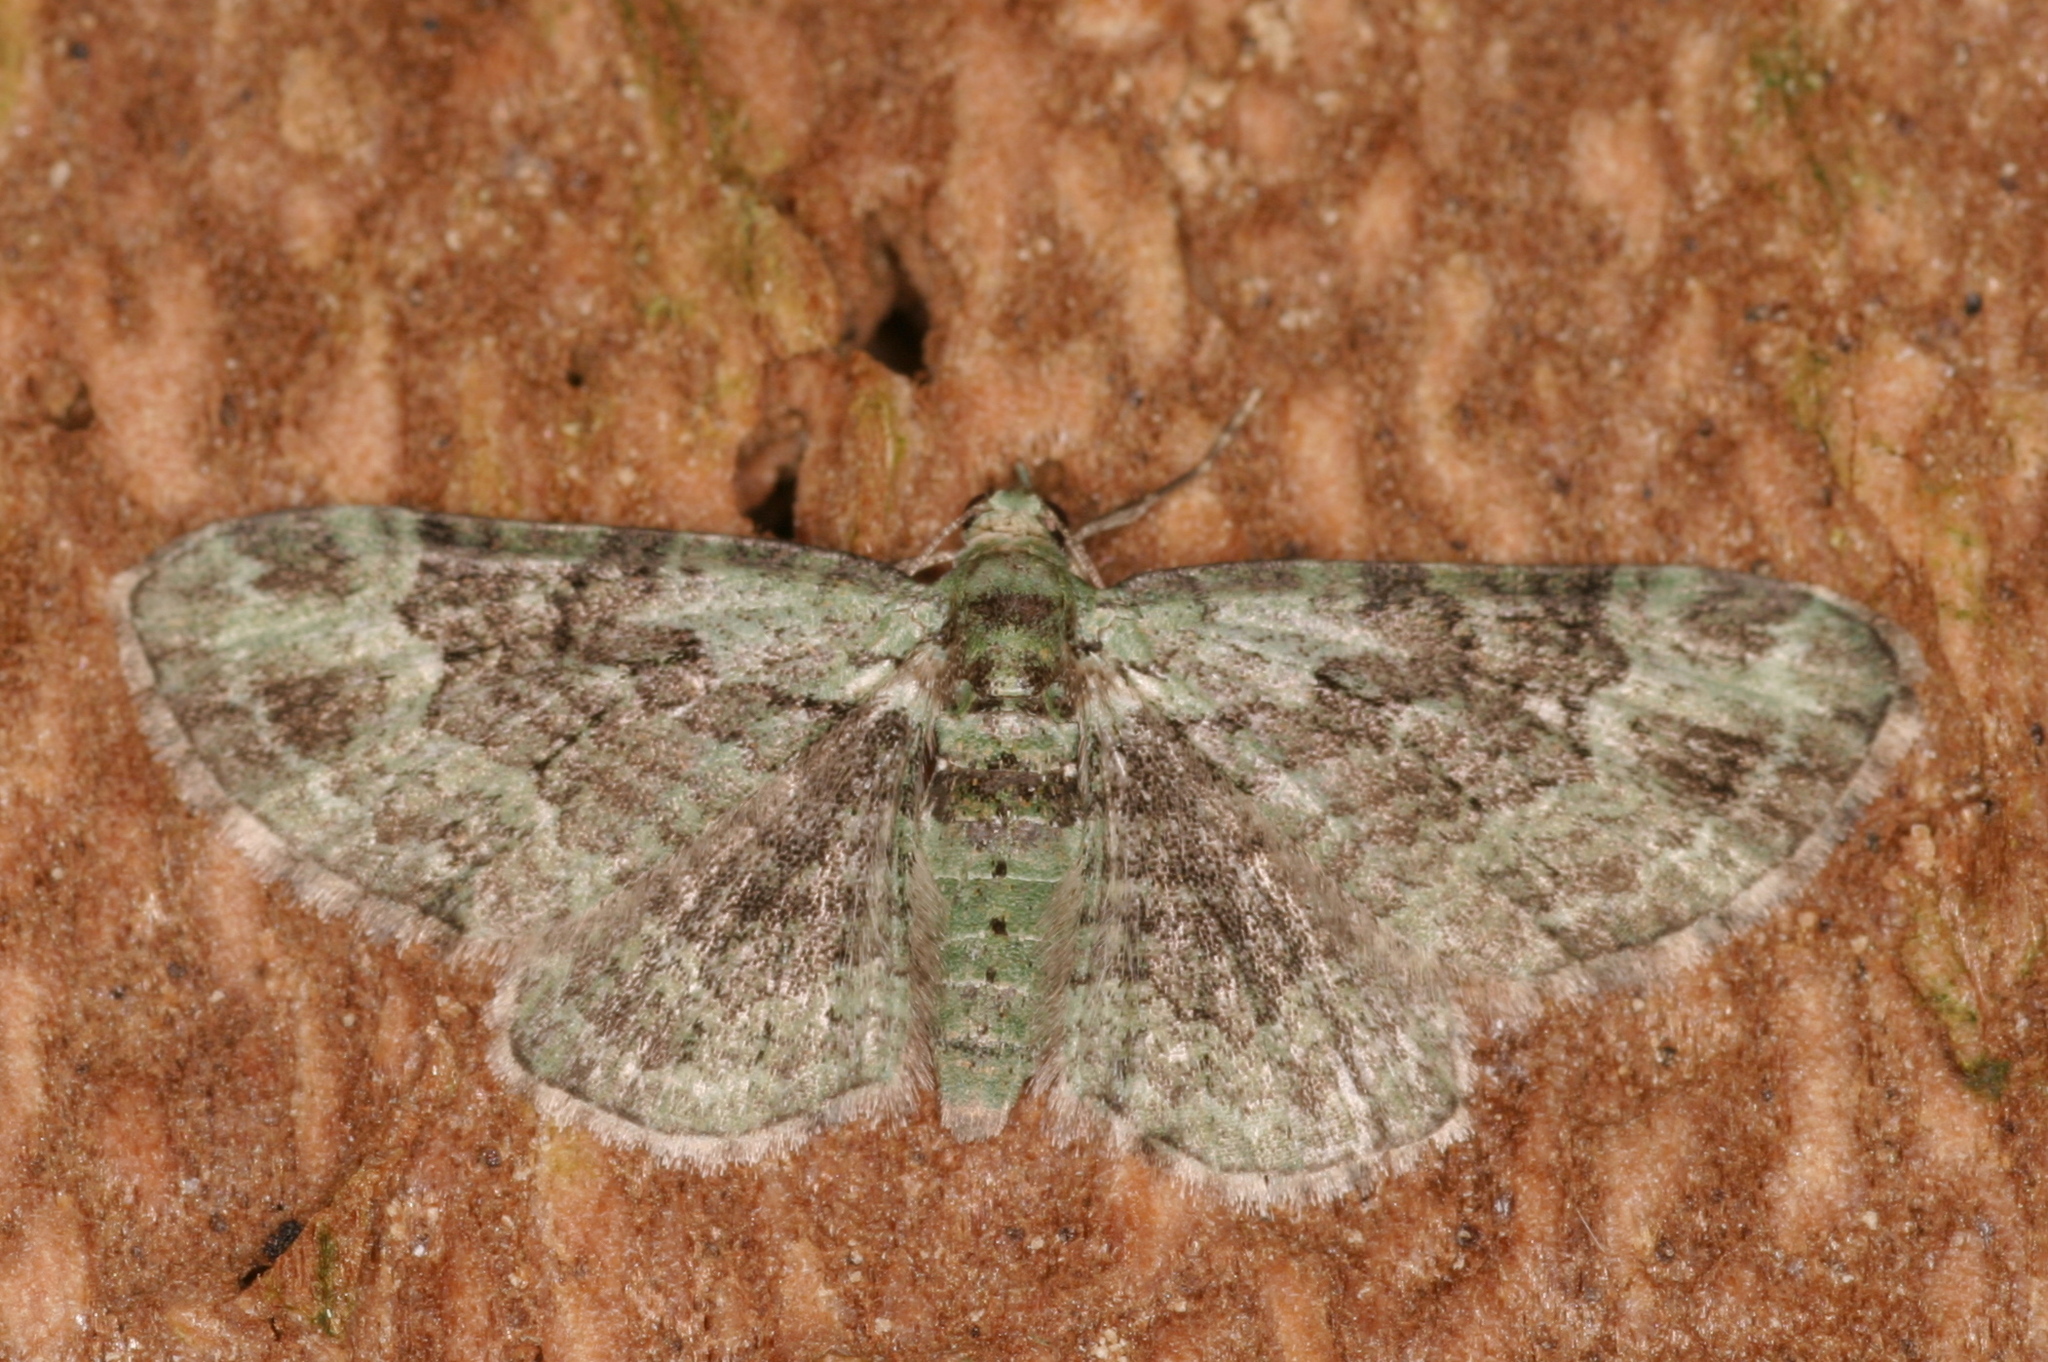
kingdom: Animalia
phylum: Arthropoda
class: Insecta
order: Lepidoptera
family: Geometridae
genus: Pasiphila
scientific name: Pasiphila rectangulata
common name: Green pug
